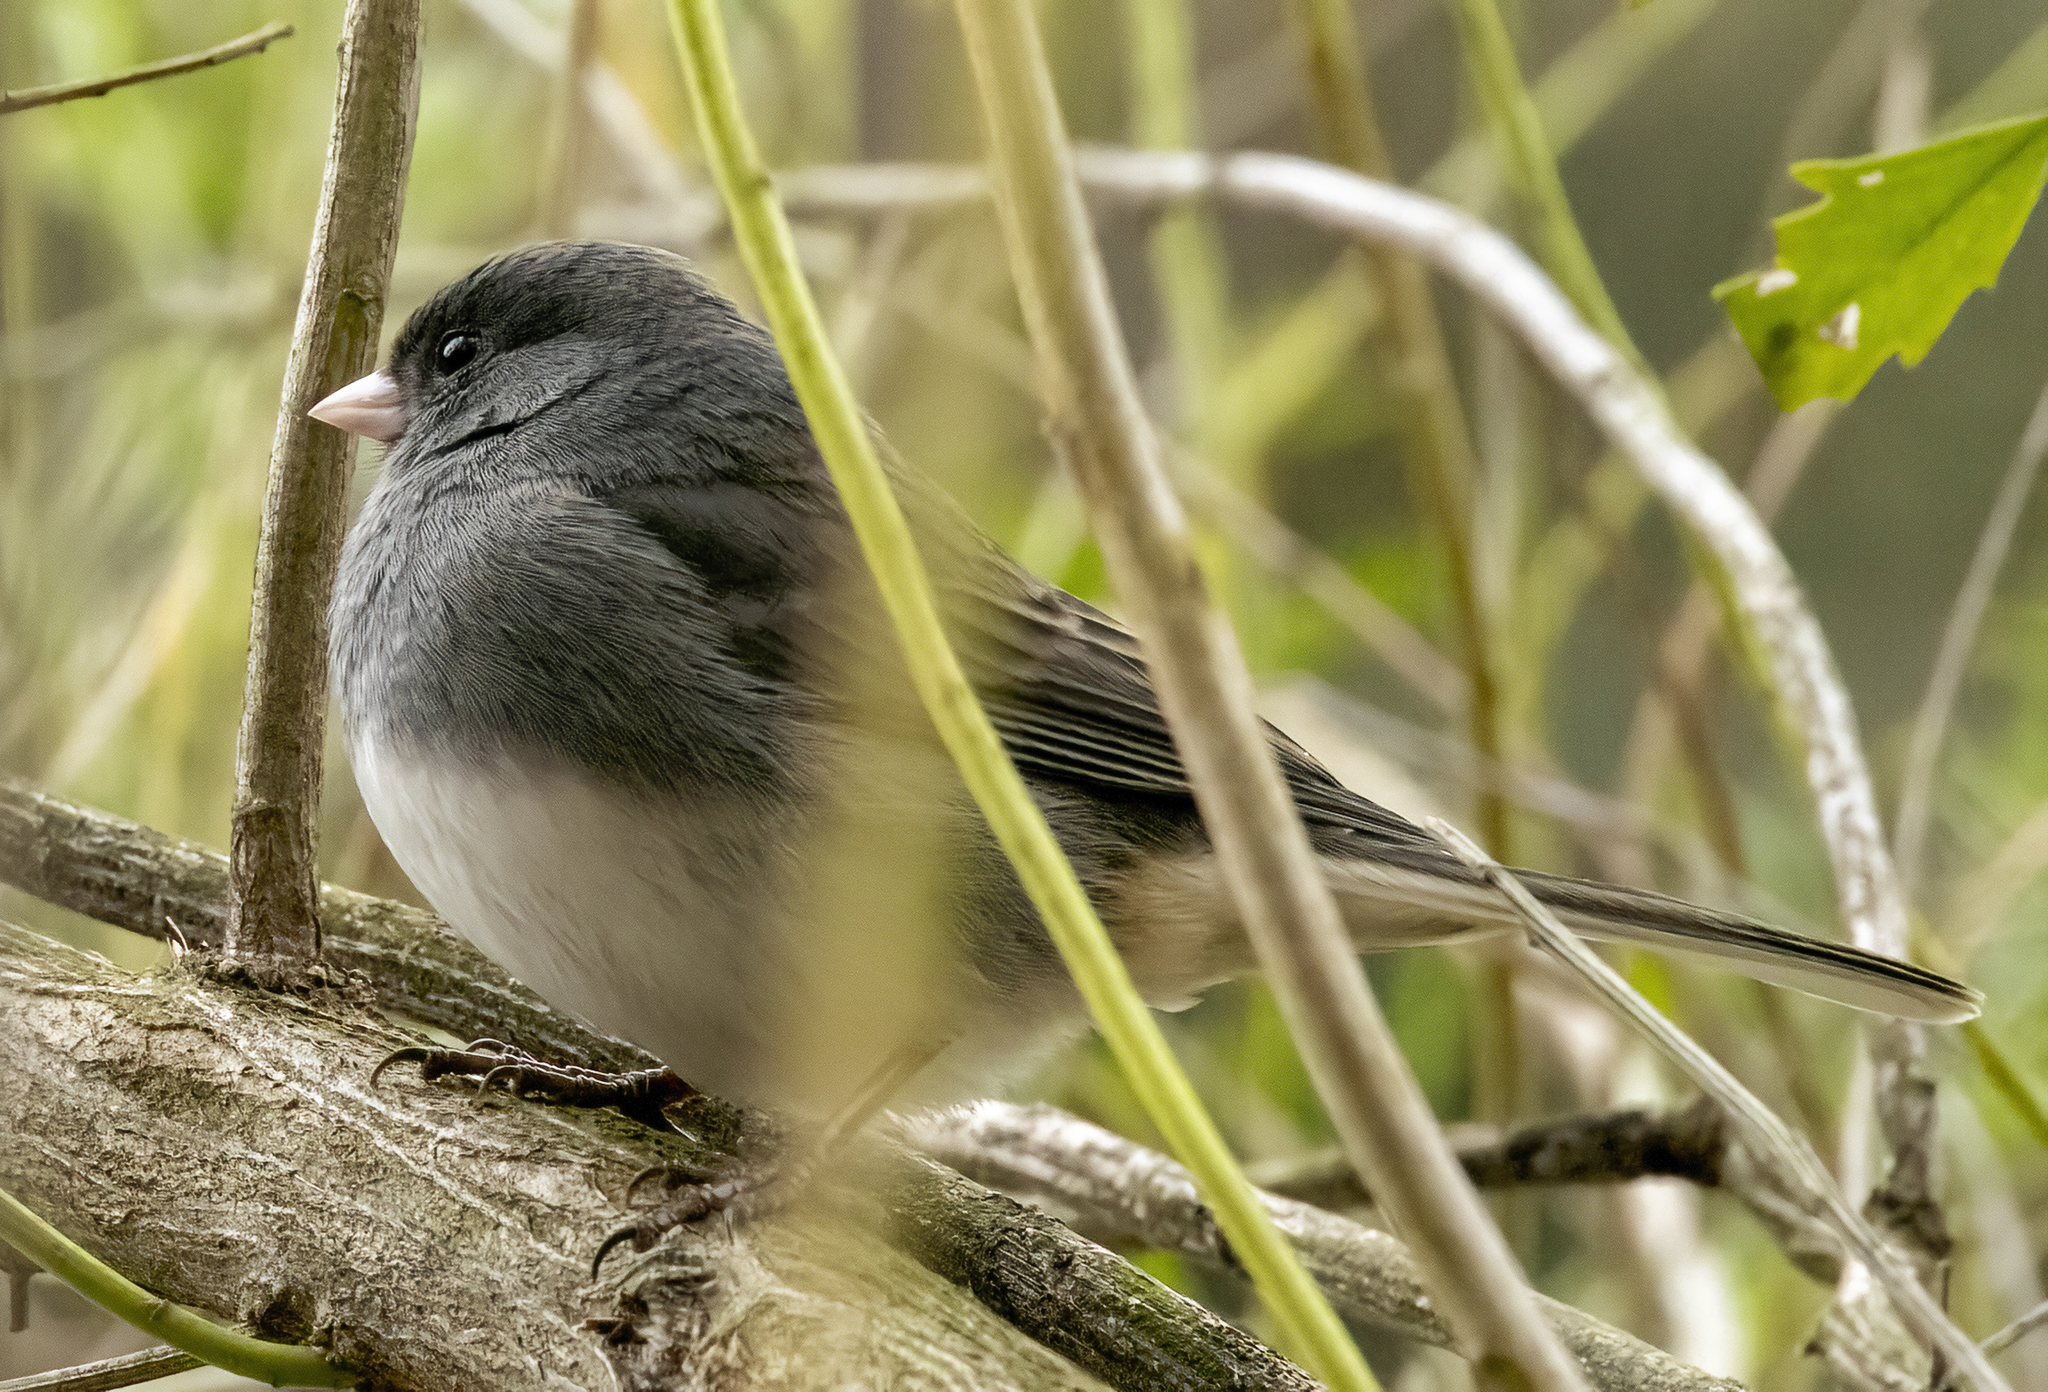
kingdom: Animalia
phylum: Chordata
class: Aves
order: Passeriformes
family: Passerellidae
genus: Junco
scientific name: Junco hyemalis
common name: Dark-eyed junco
